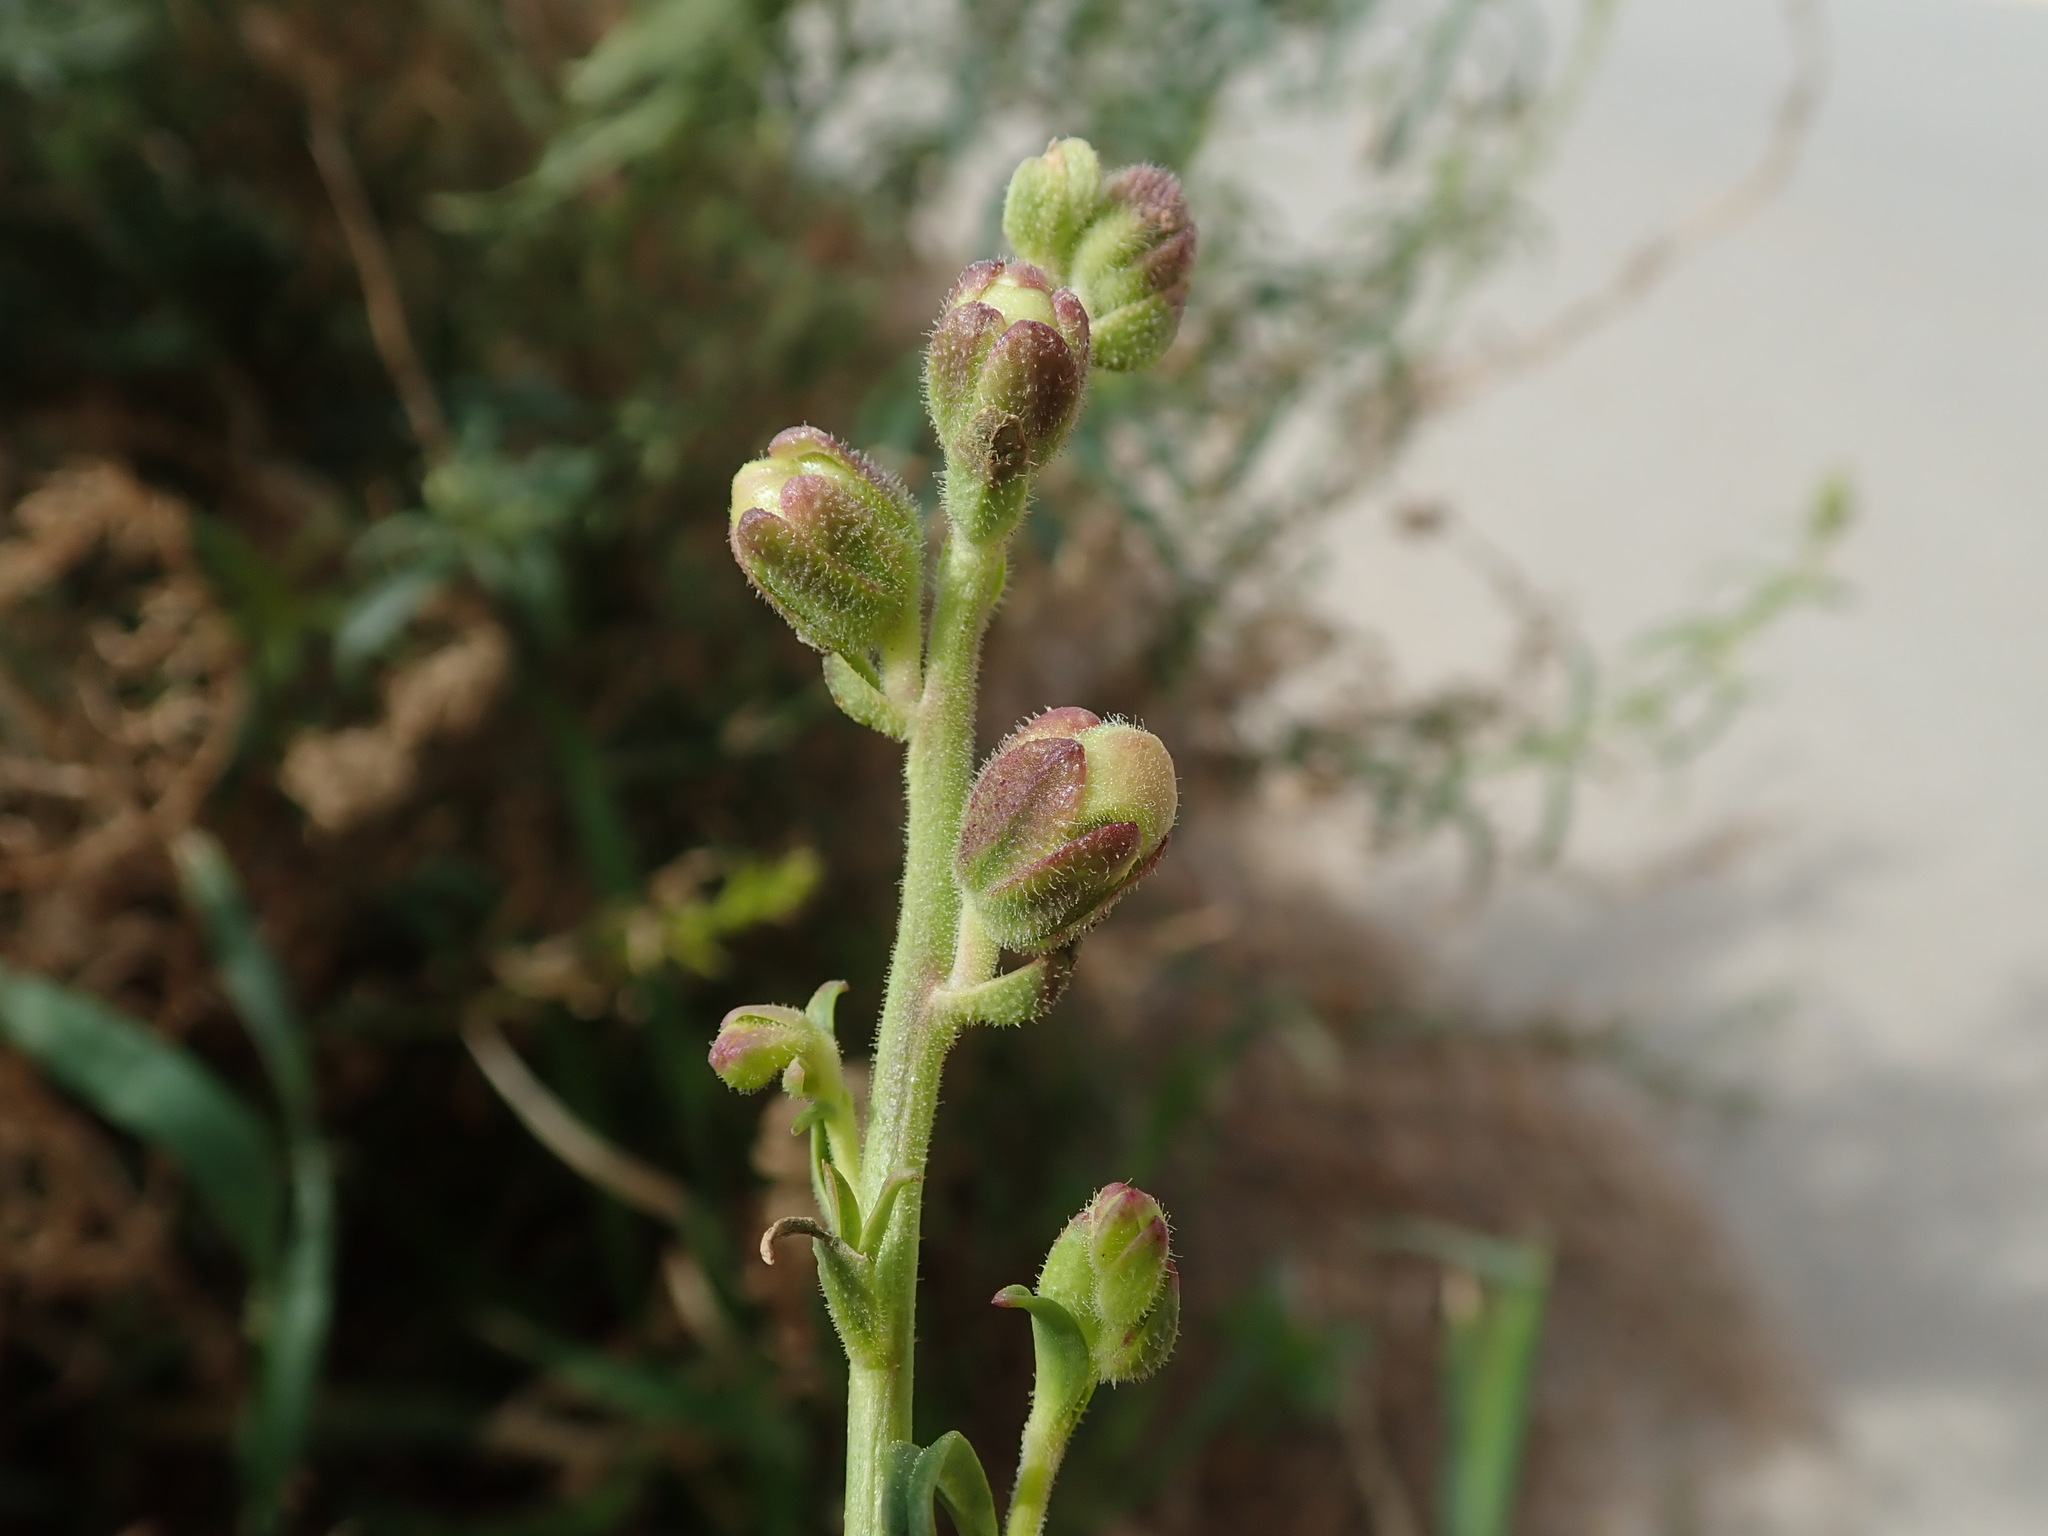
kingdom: Plantae
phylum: Tracheophyta
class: Magnoliopsida
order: Lamiales
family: Plantaginaceae
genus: Antirrhinum
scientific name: Antirrhinum tortuosum
